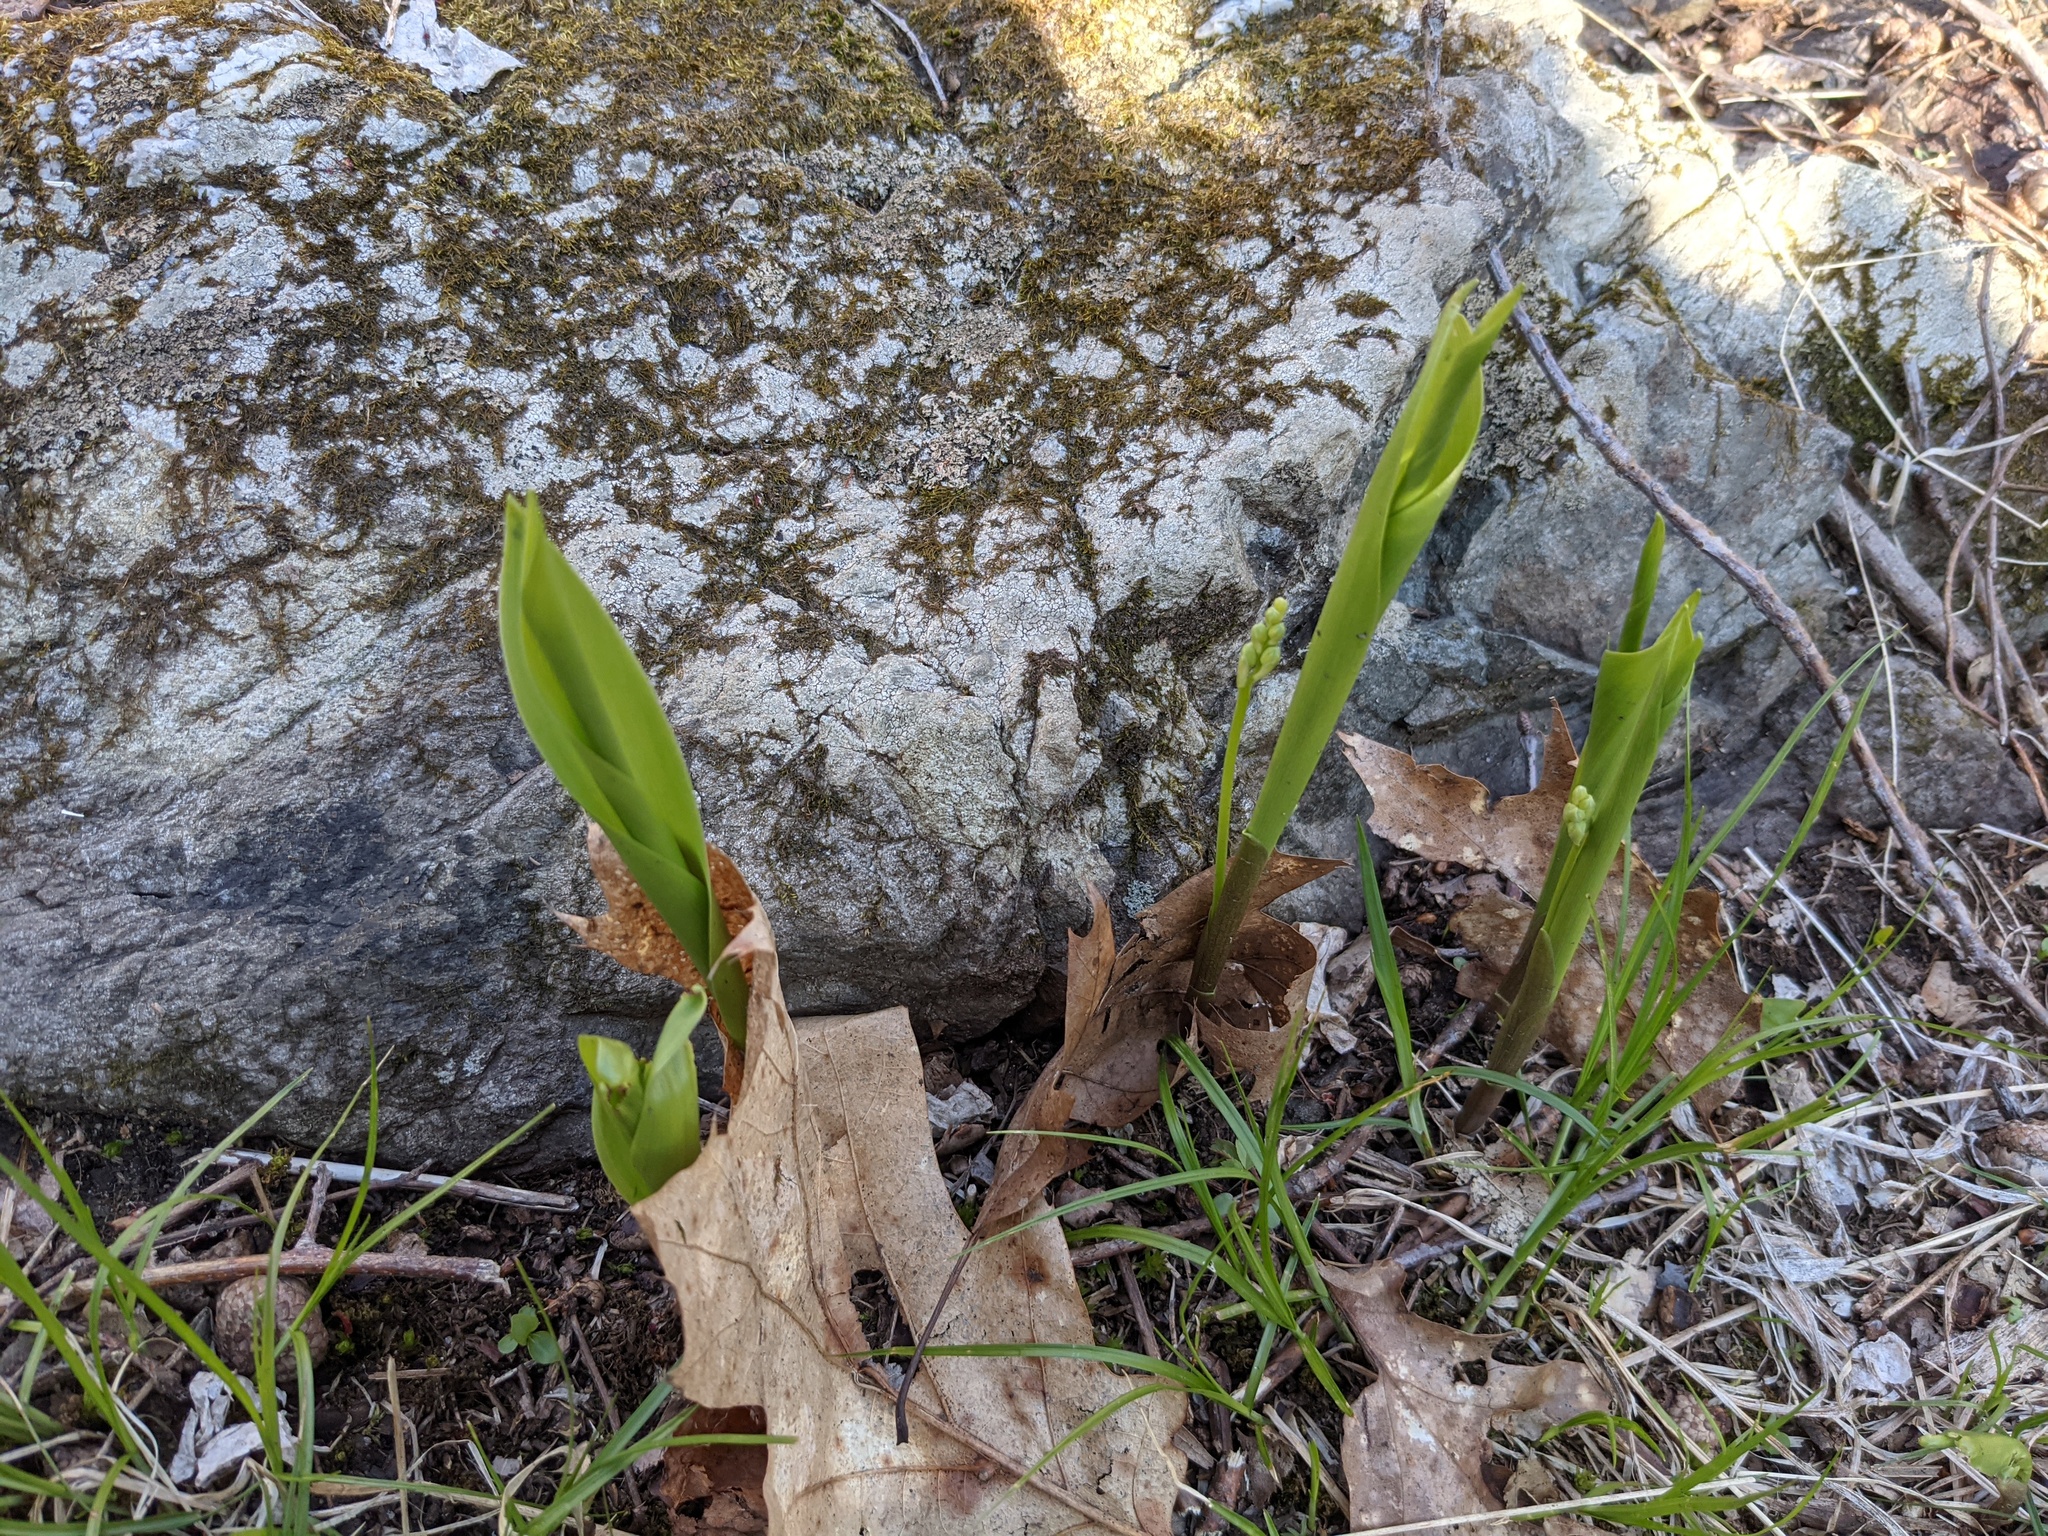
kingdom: Plantae
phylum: Tracheophyta
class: Liliopsida
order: Asparagales
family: Asparagaceae
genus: Convallaria
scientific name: Convallaria majalis
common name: Lily-of-the-valley
